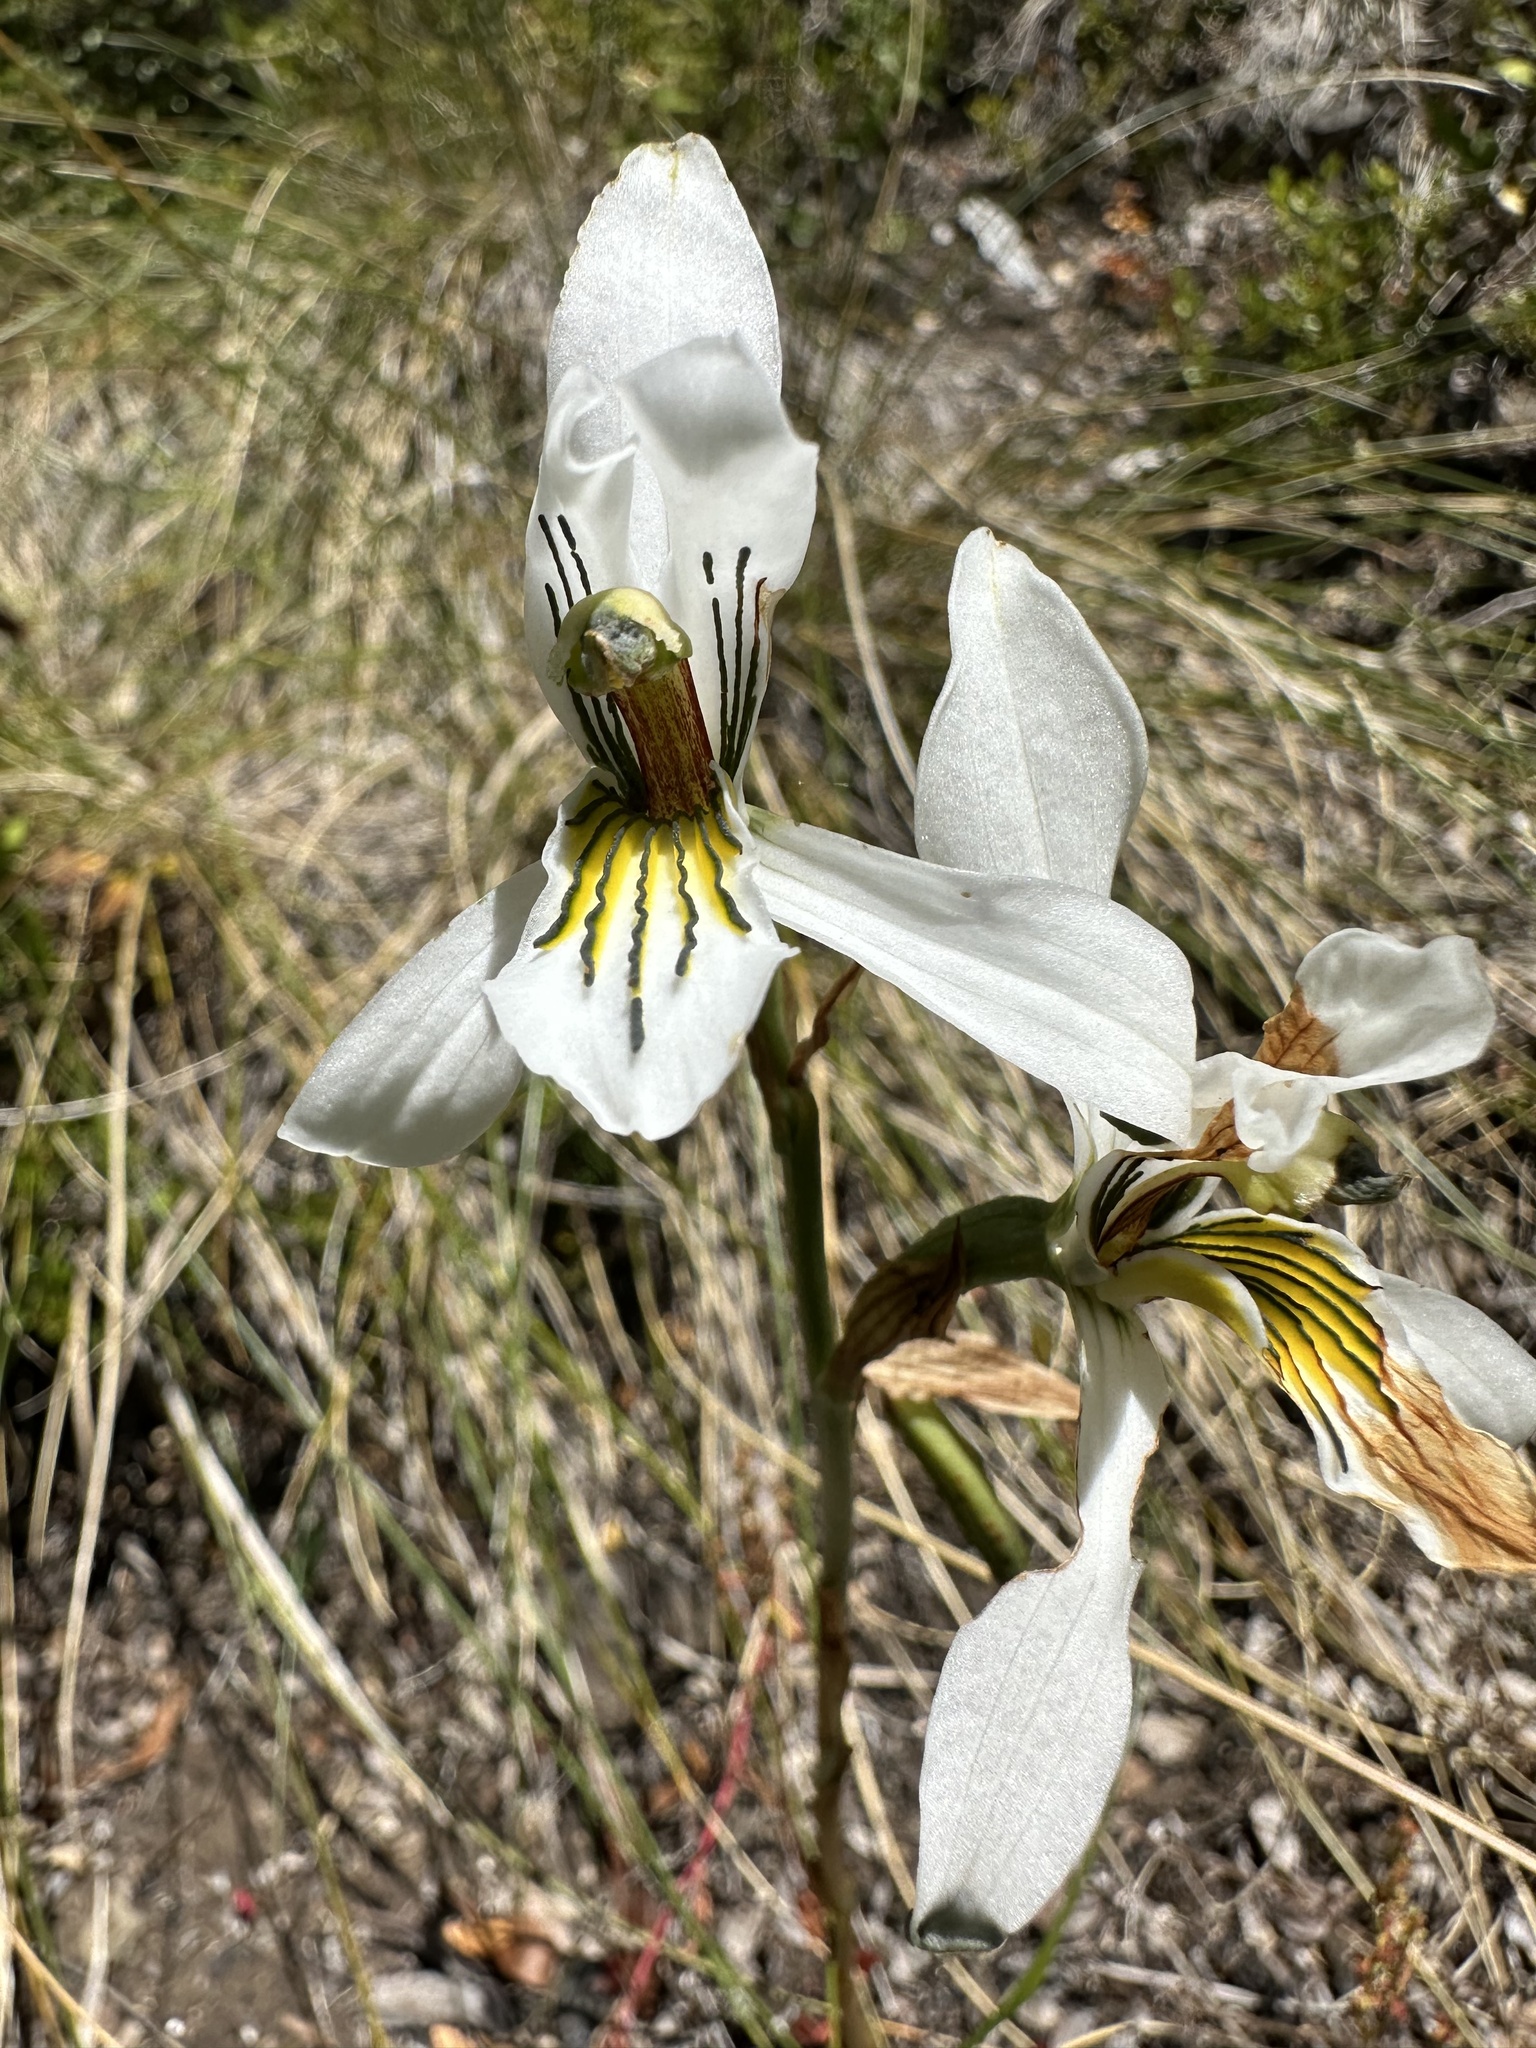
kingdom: Plantae
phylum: Tracheophyta
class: Liliopsida
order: Asparagales
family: Orchidaceae
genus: Chloraea
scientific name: Chloraea longipetala
